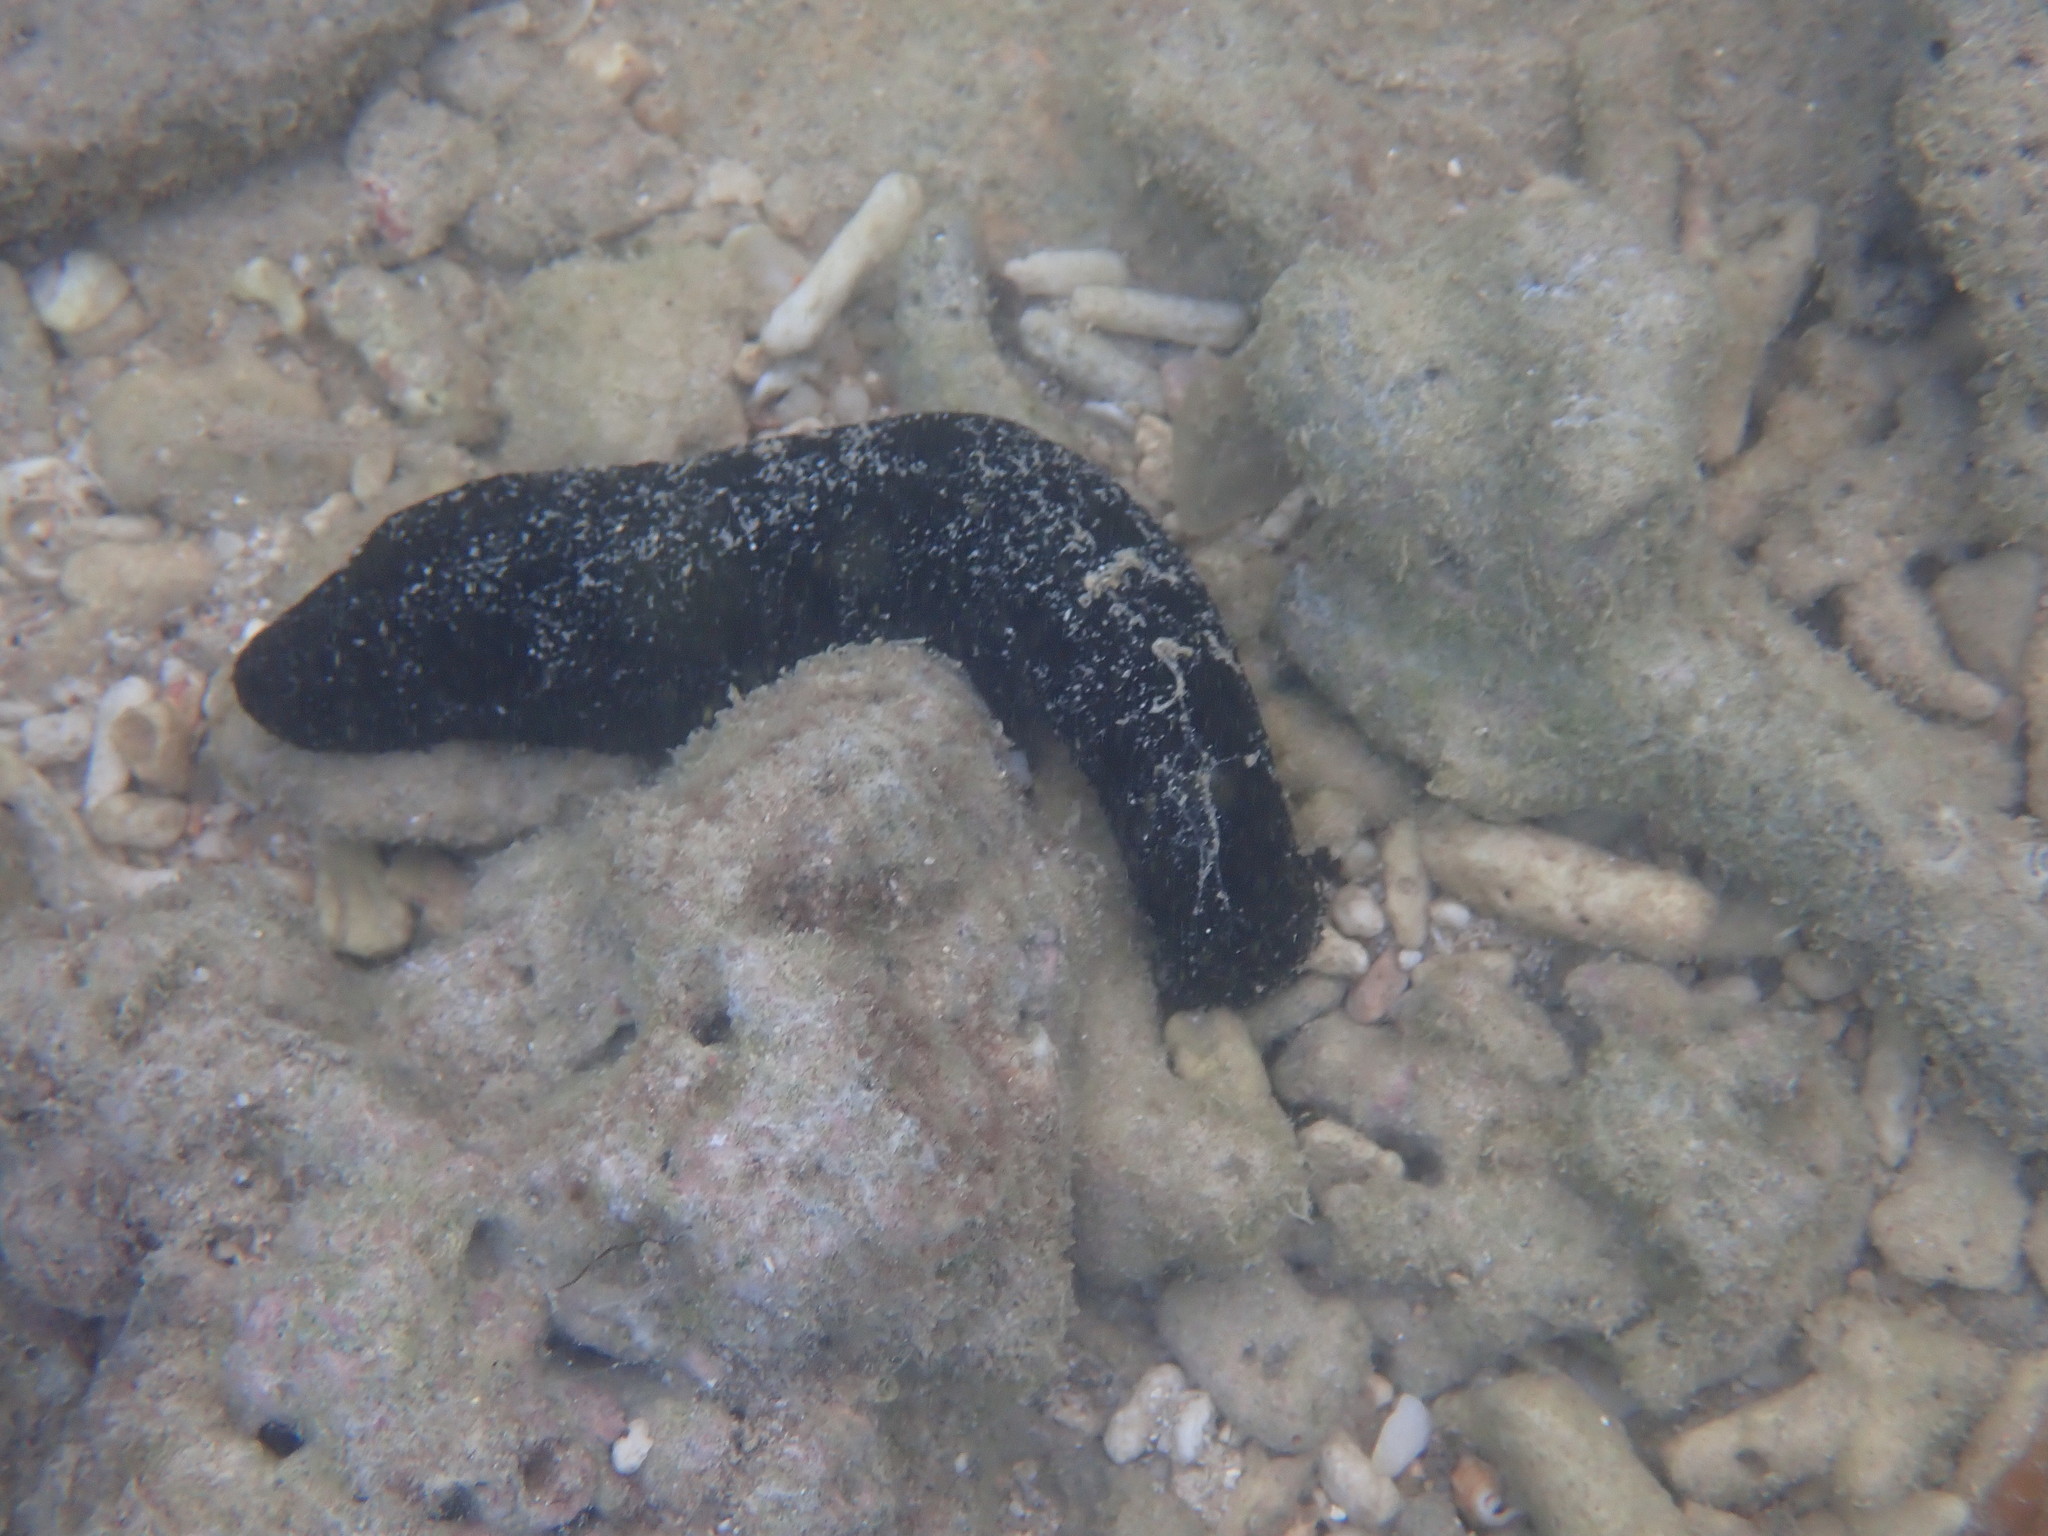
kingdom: Animalia
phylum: Echinodermata
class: Holothuroidea
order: Holothuriida
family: Holothuriidae
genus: Holothuria
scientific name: Holothuria leucospilota
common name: White thread fish
